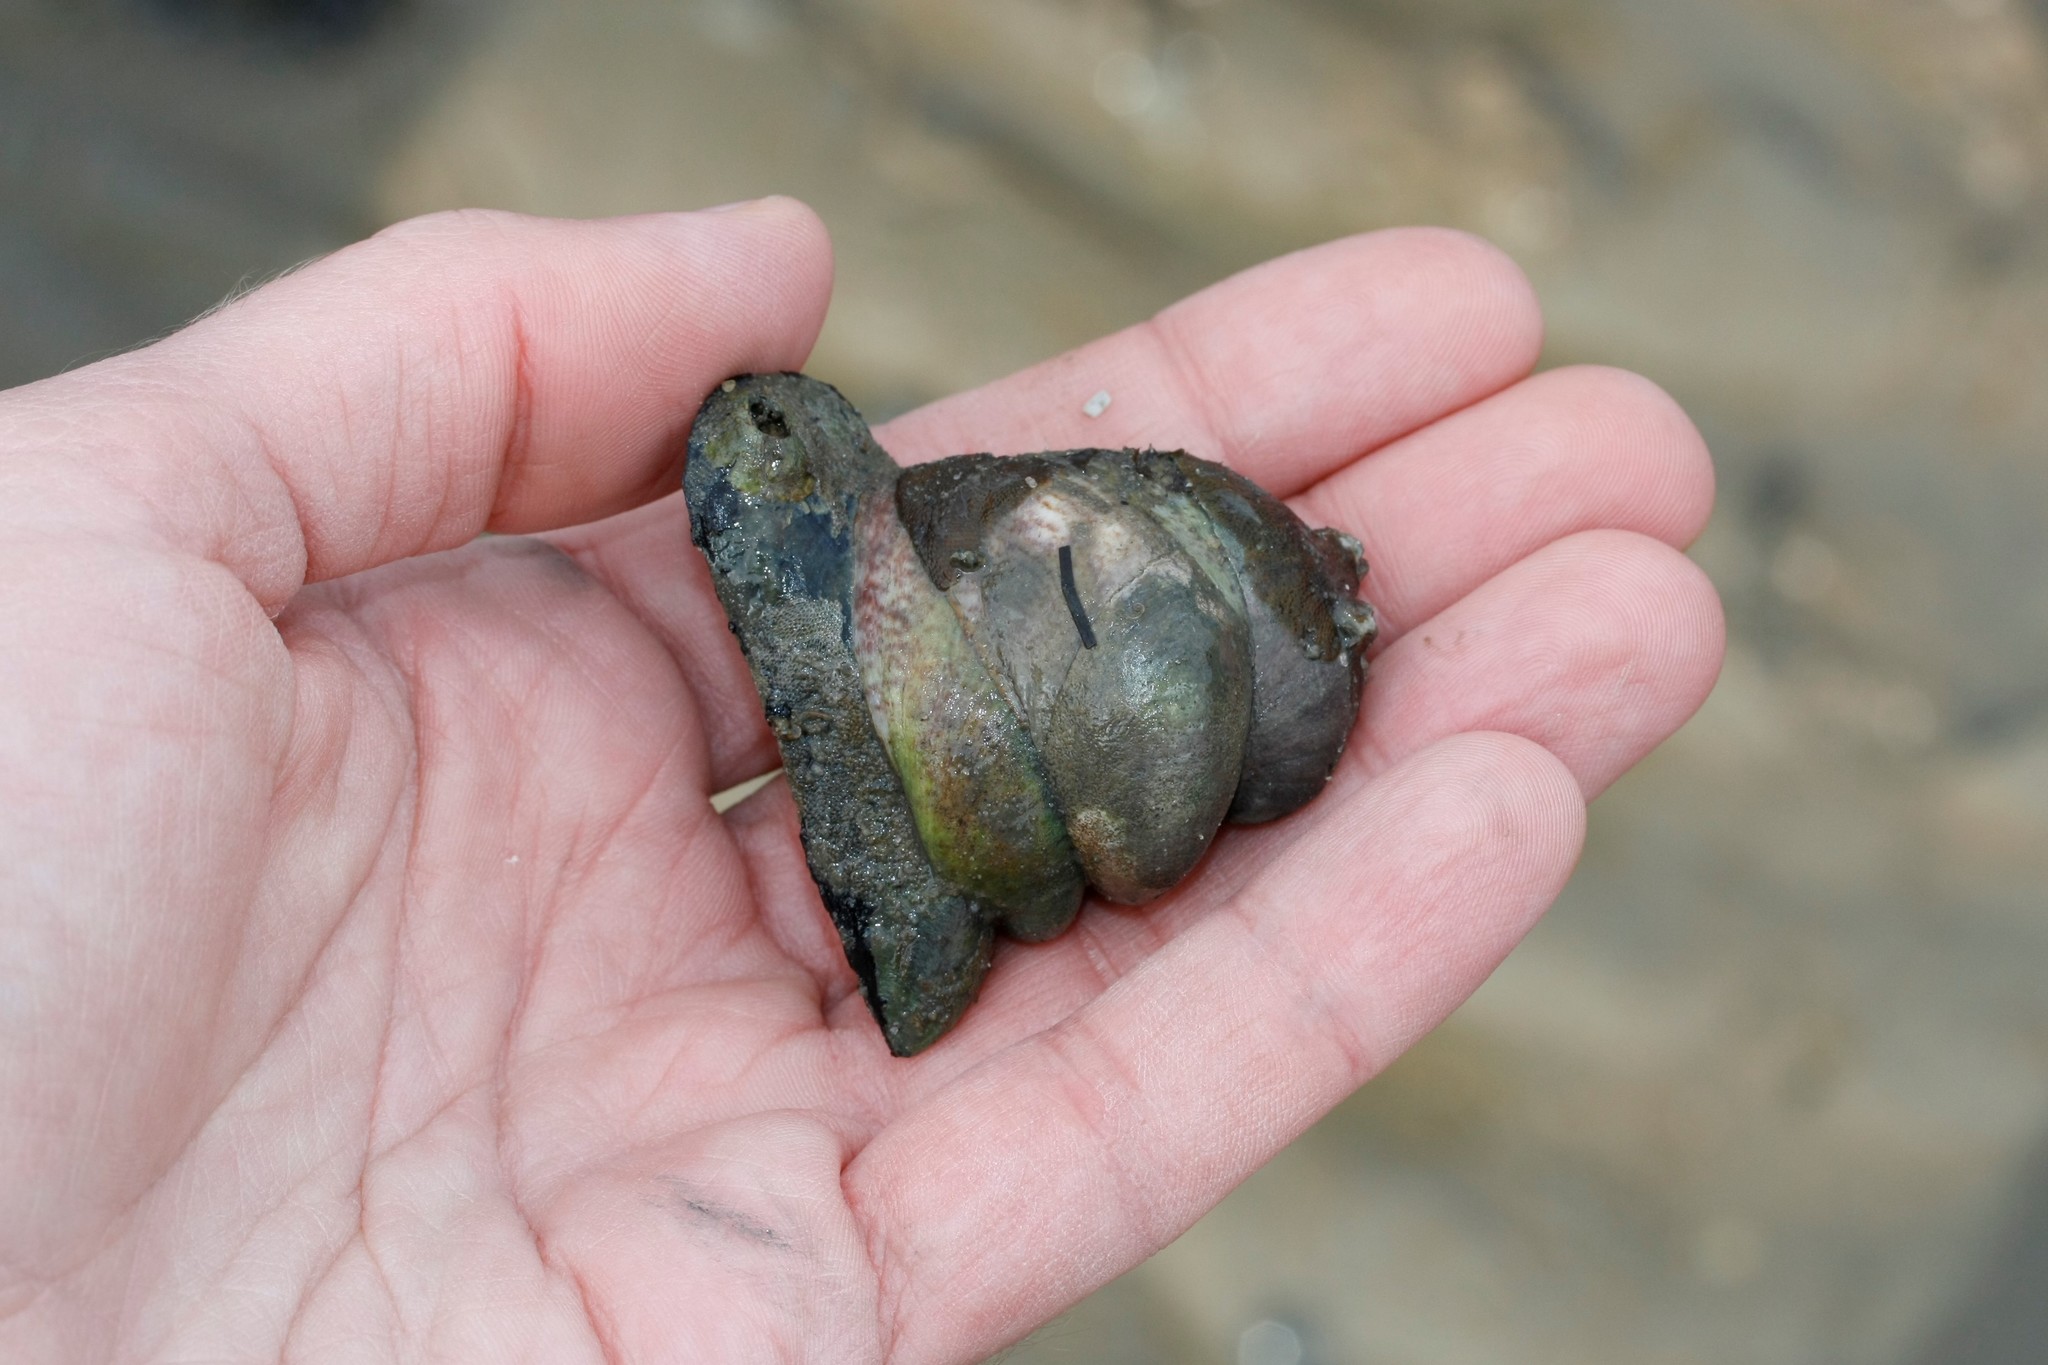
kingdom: Animalia
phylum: Mollusca
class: Gastropoda
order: Littorinimorpha
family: Calyptraeidae
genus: Crepidula
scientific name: Crepidula fornicata
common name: Slipper limpet
